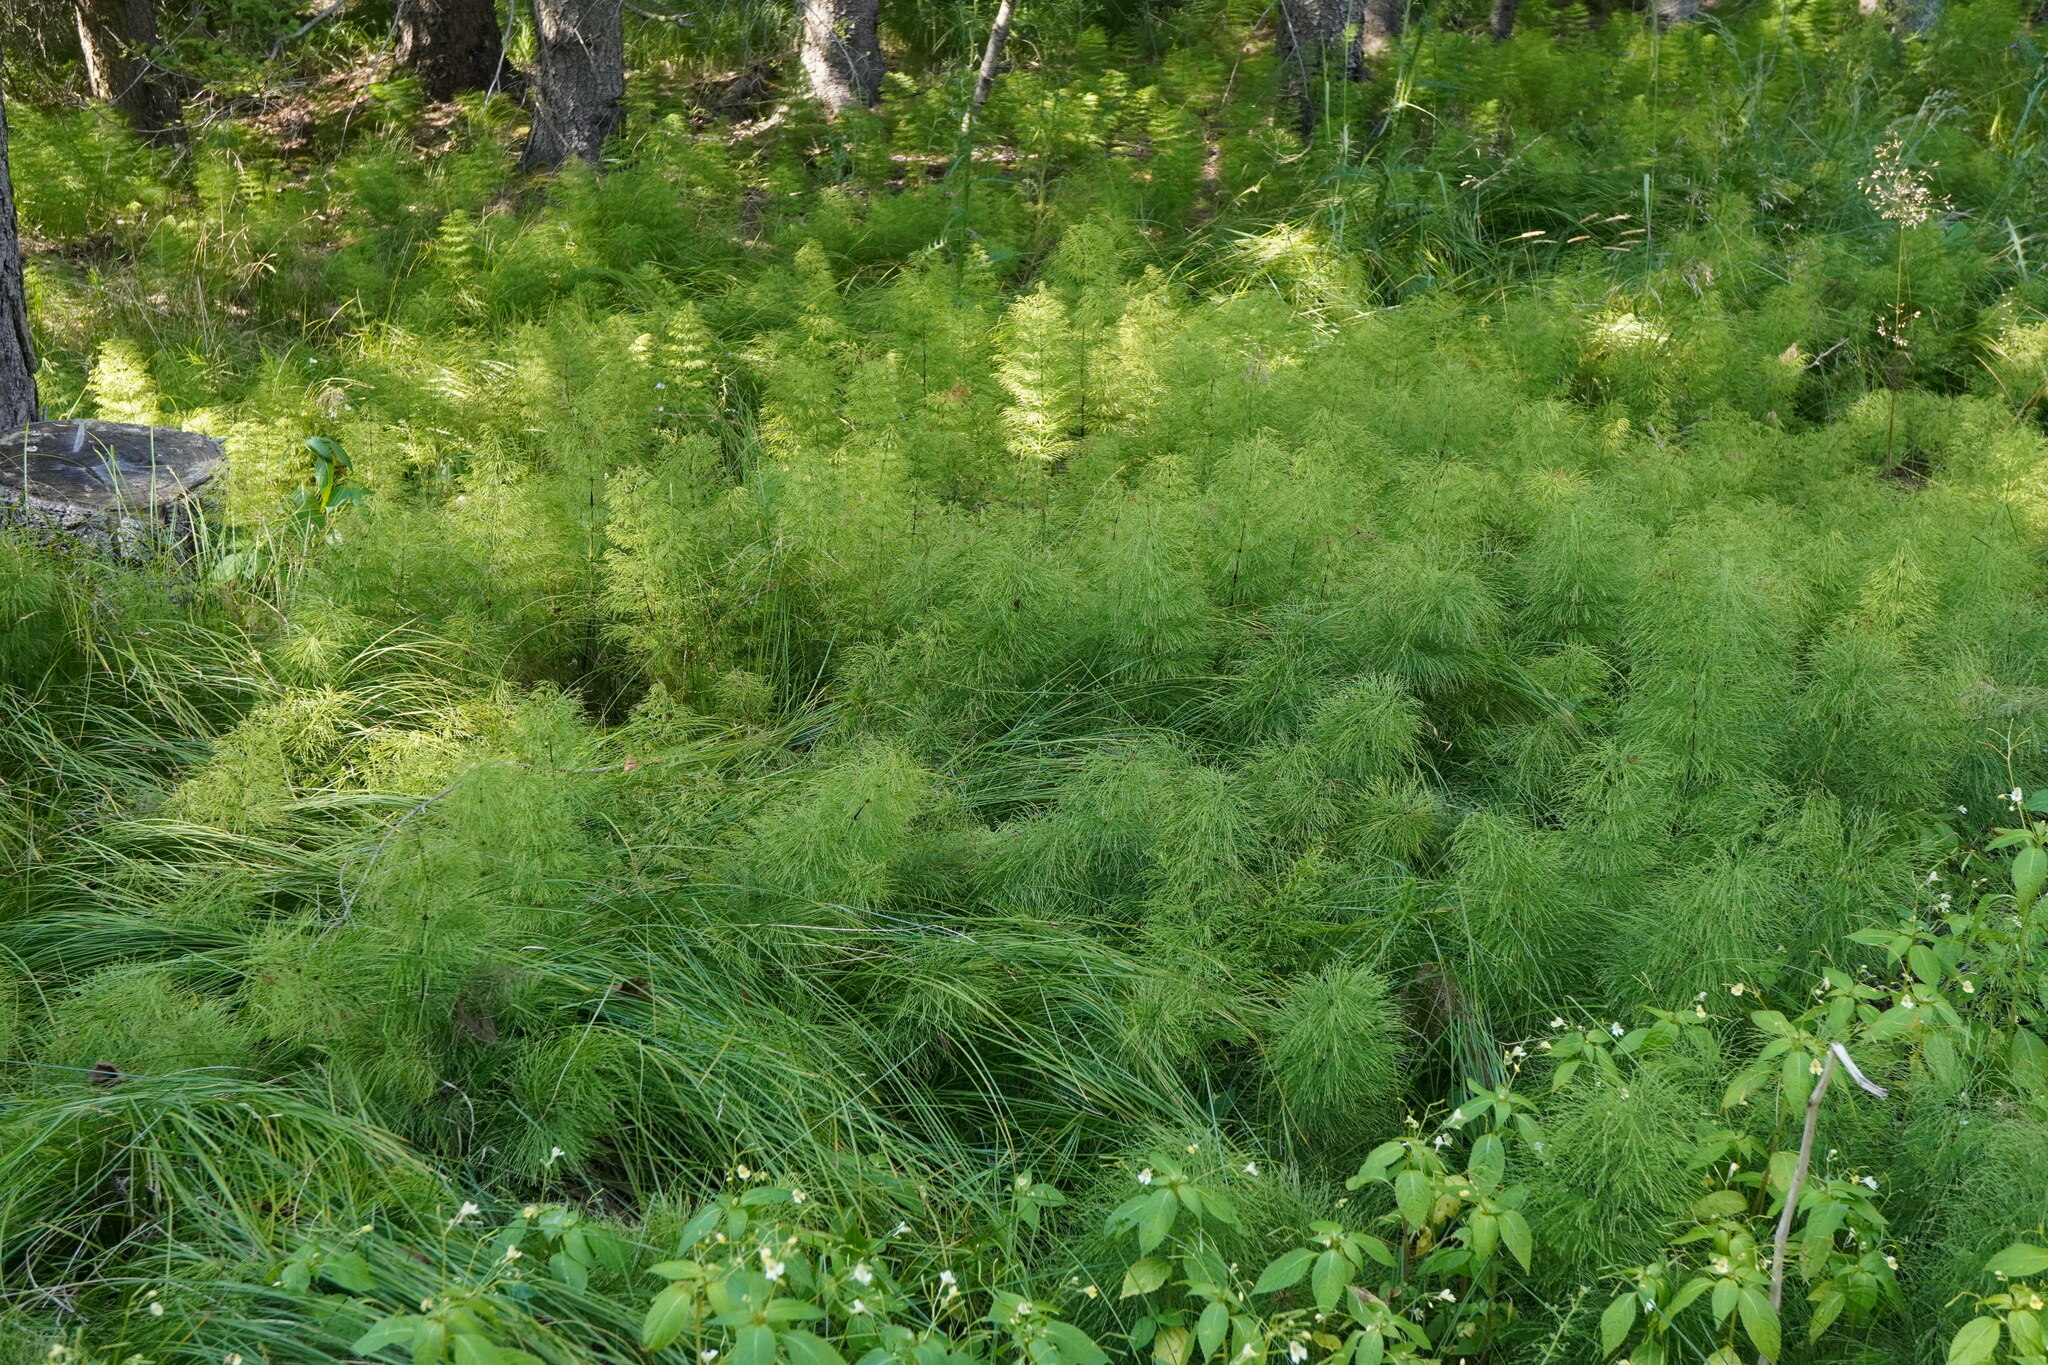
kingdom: Plantae
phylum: Tracheophyta
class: Polypodiopsida
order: Equisetales
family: Equisetaceae
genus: Equisetum
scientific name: Equisetum sylvaticum
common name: Wood horsetail
